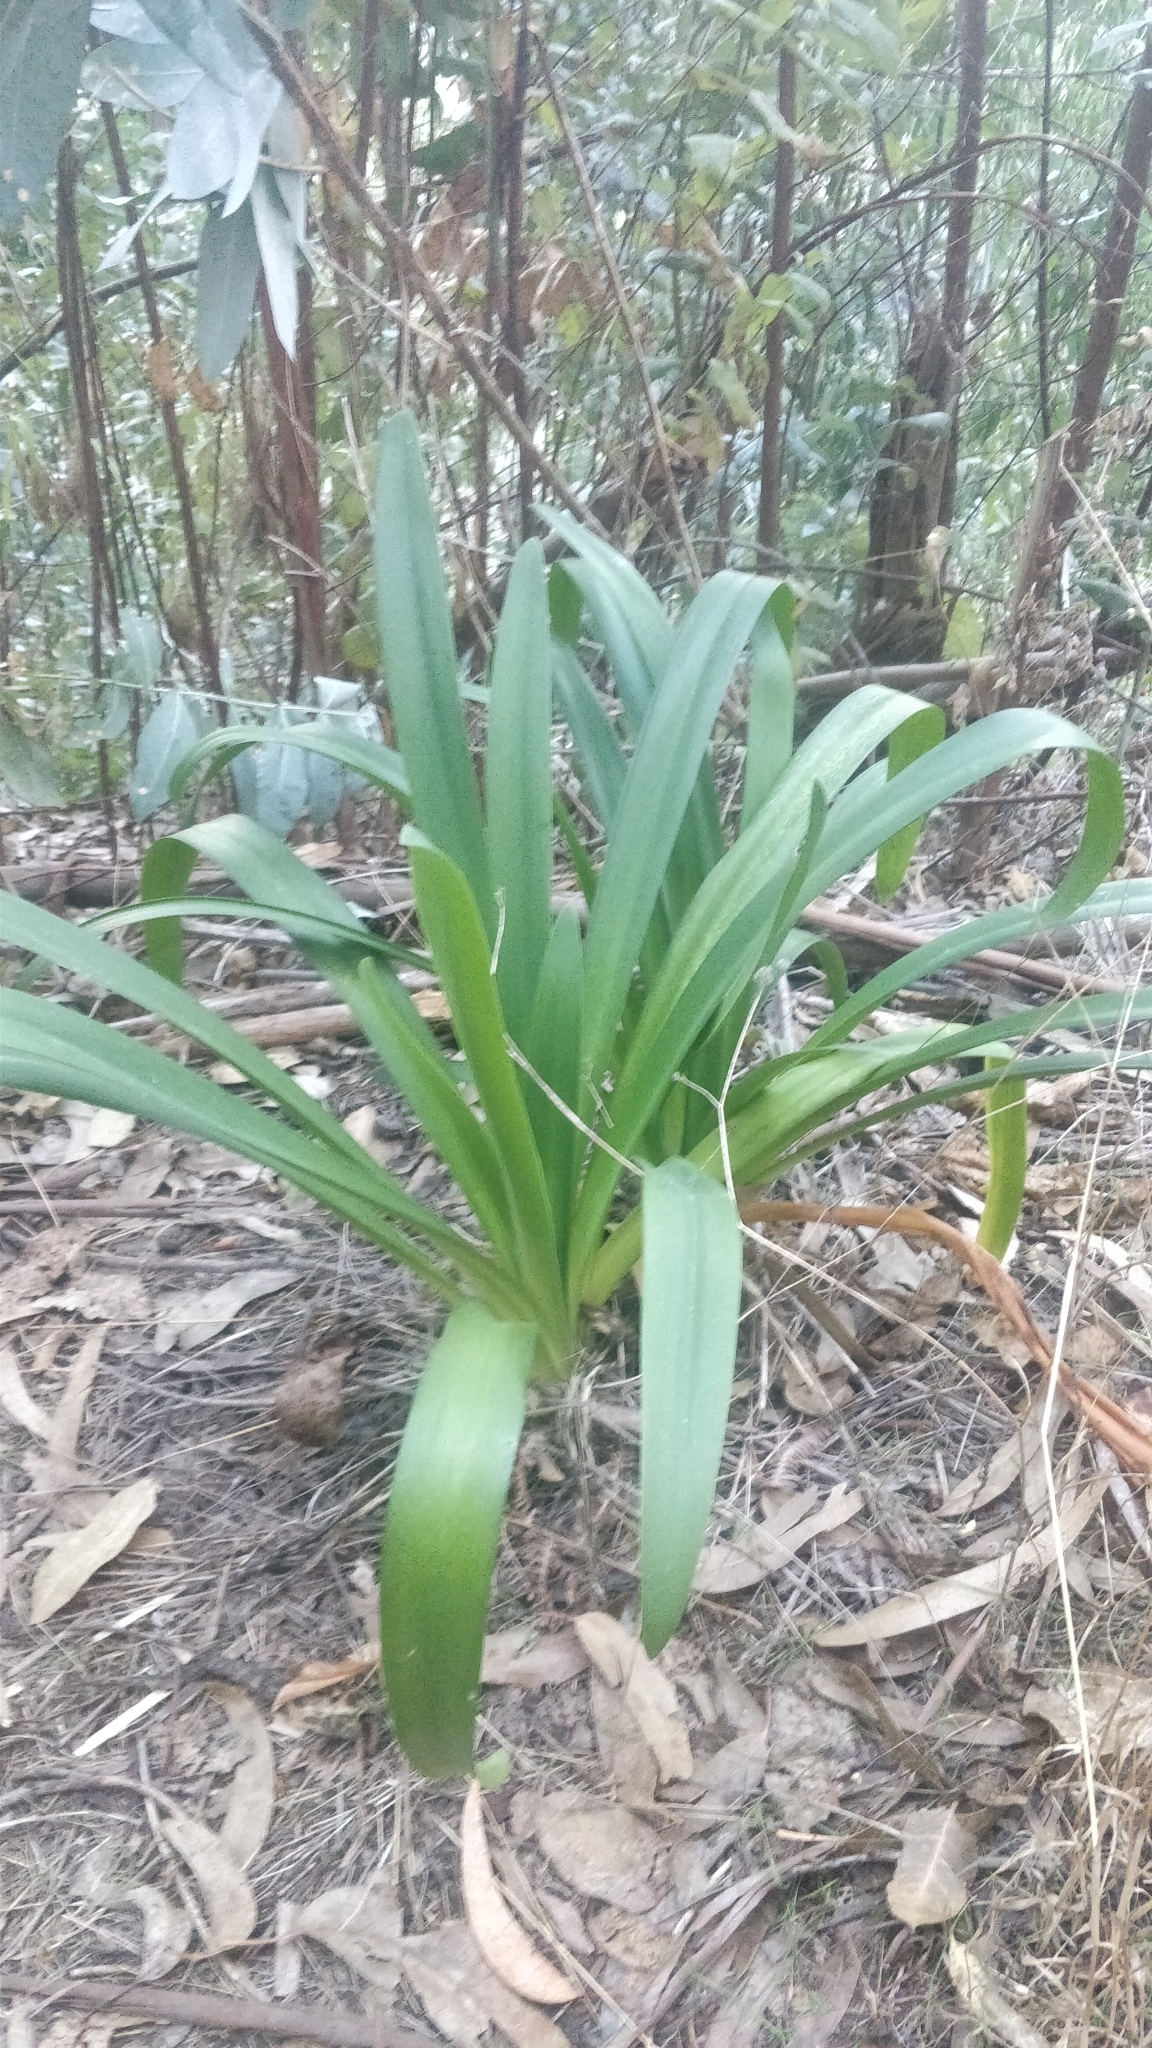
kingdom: Plantae
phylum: Tracheophyta
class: Liliopsida
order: Asparagales
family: Amaryllidaceae
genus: Agapanthus
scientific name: Agapanthus praecox
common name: African-lily
